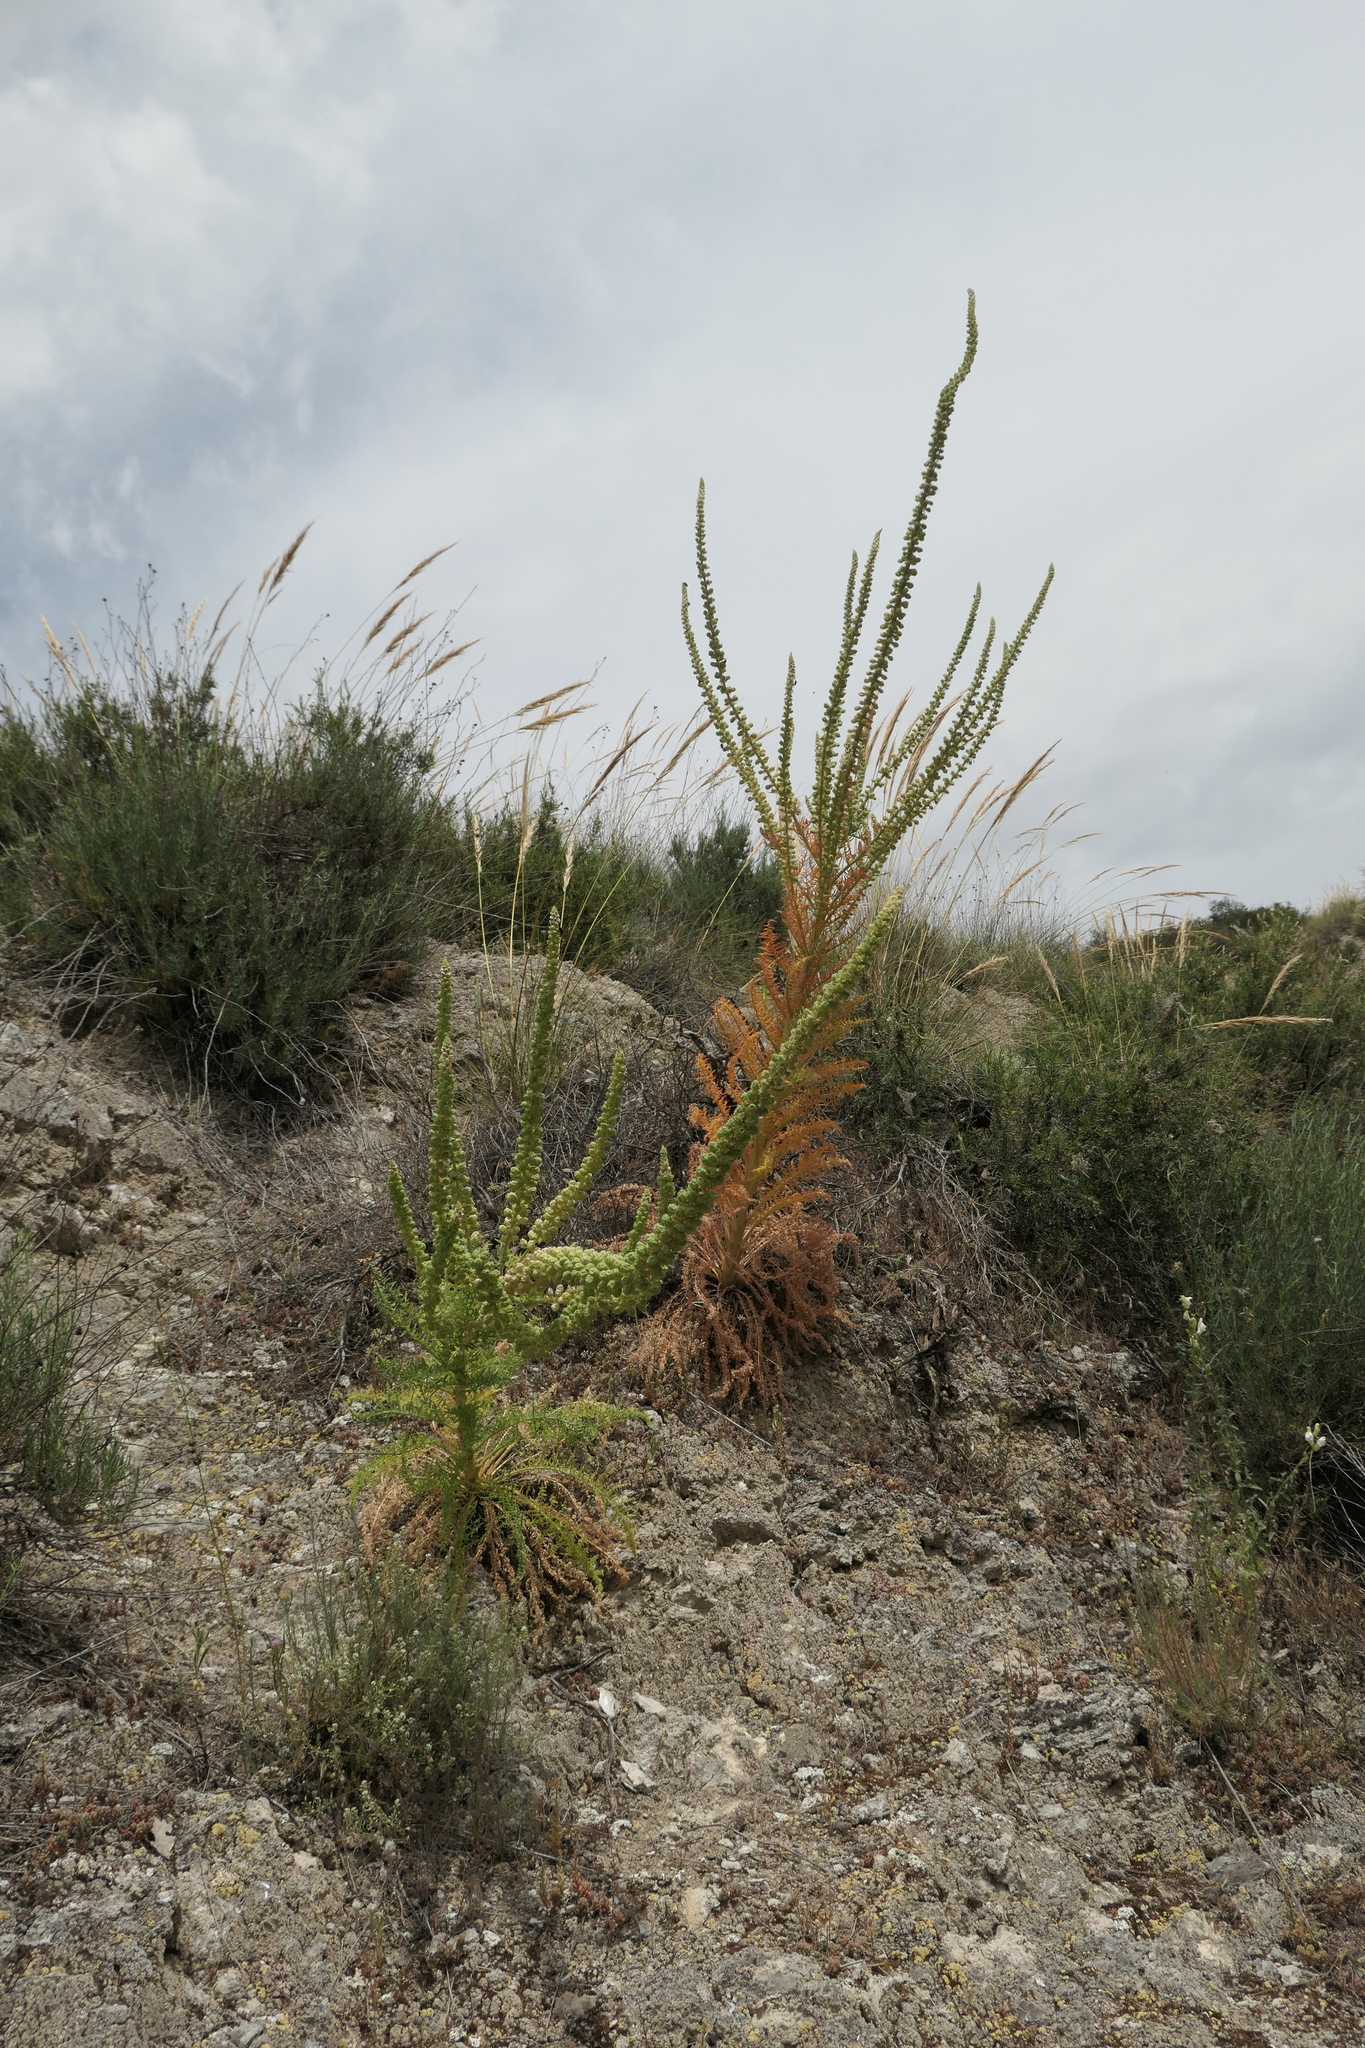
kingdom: Plantae
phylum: Tracheophyta
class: Magnoliopsida
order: Brassicales
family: Resedaceae
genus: Reseda
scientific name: Reseda suffruticosa
